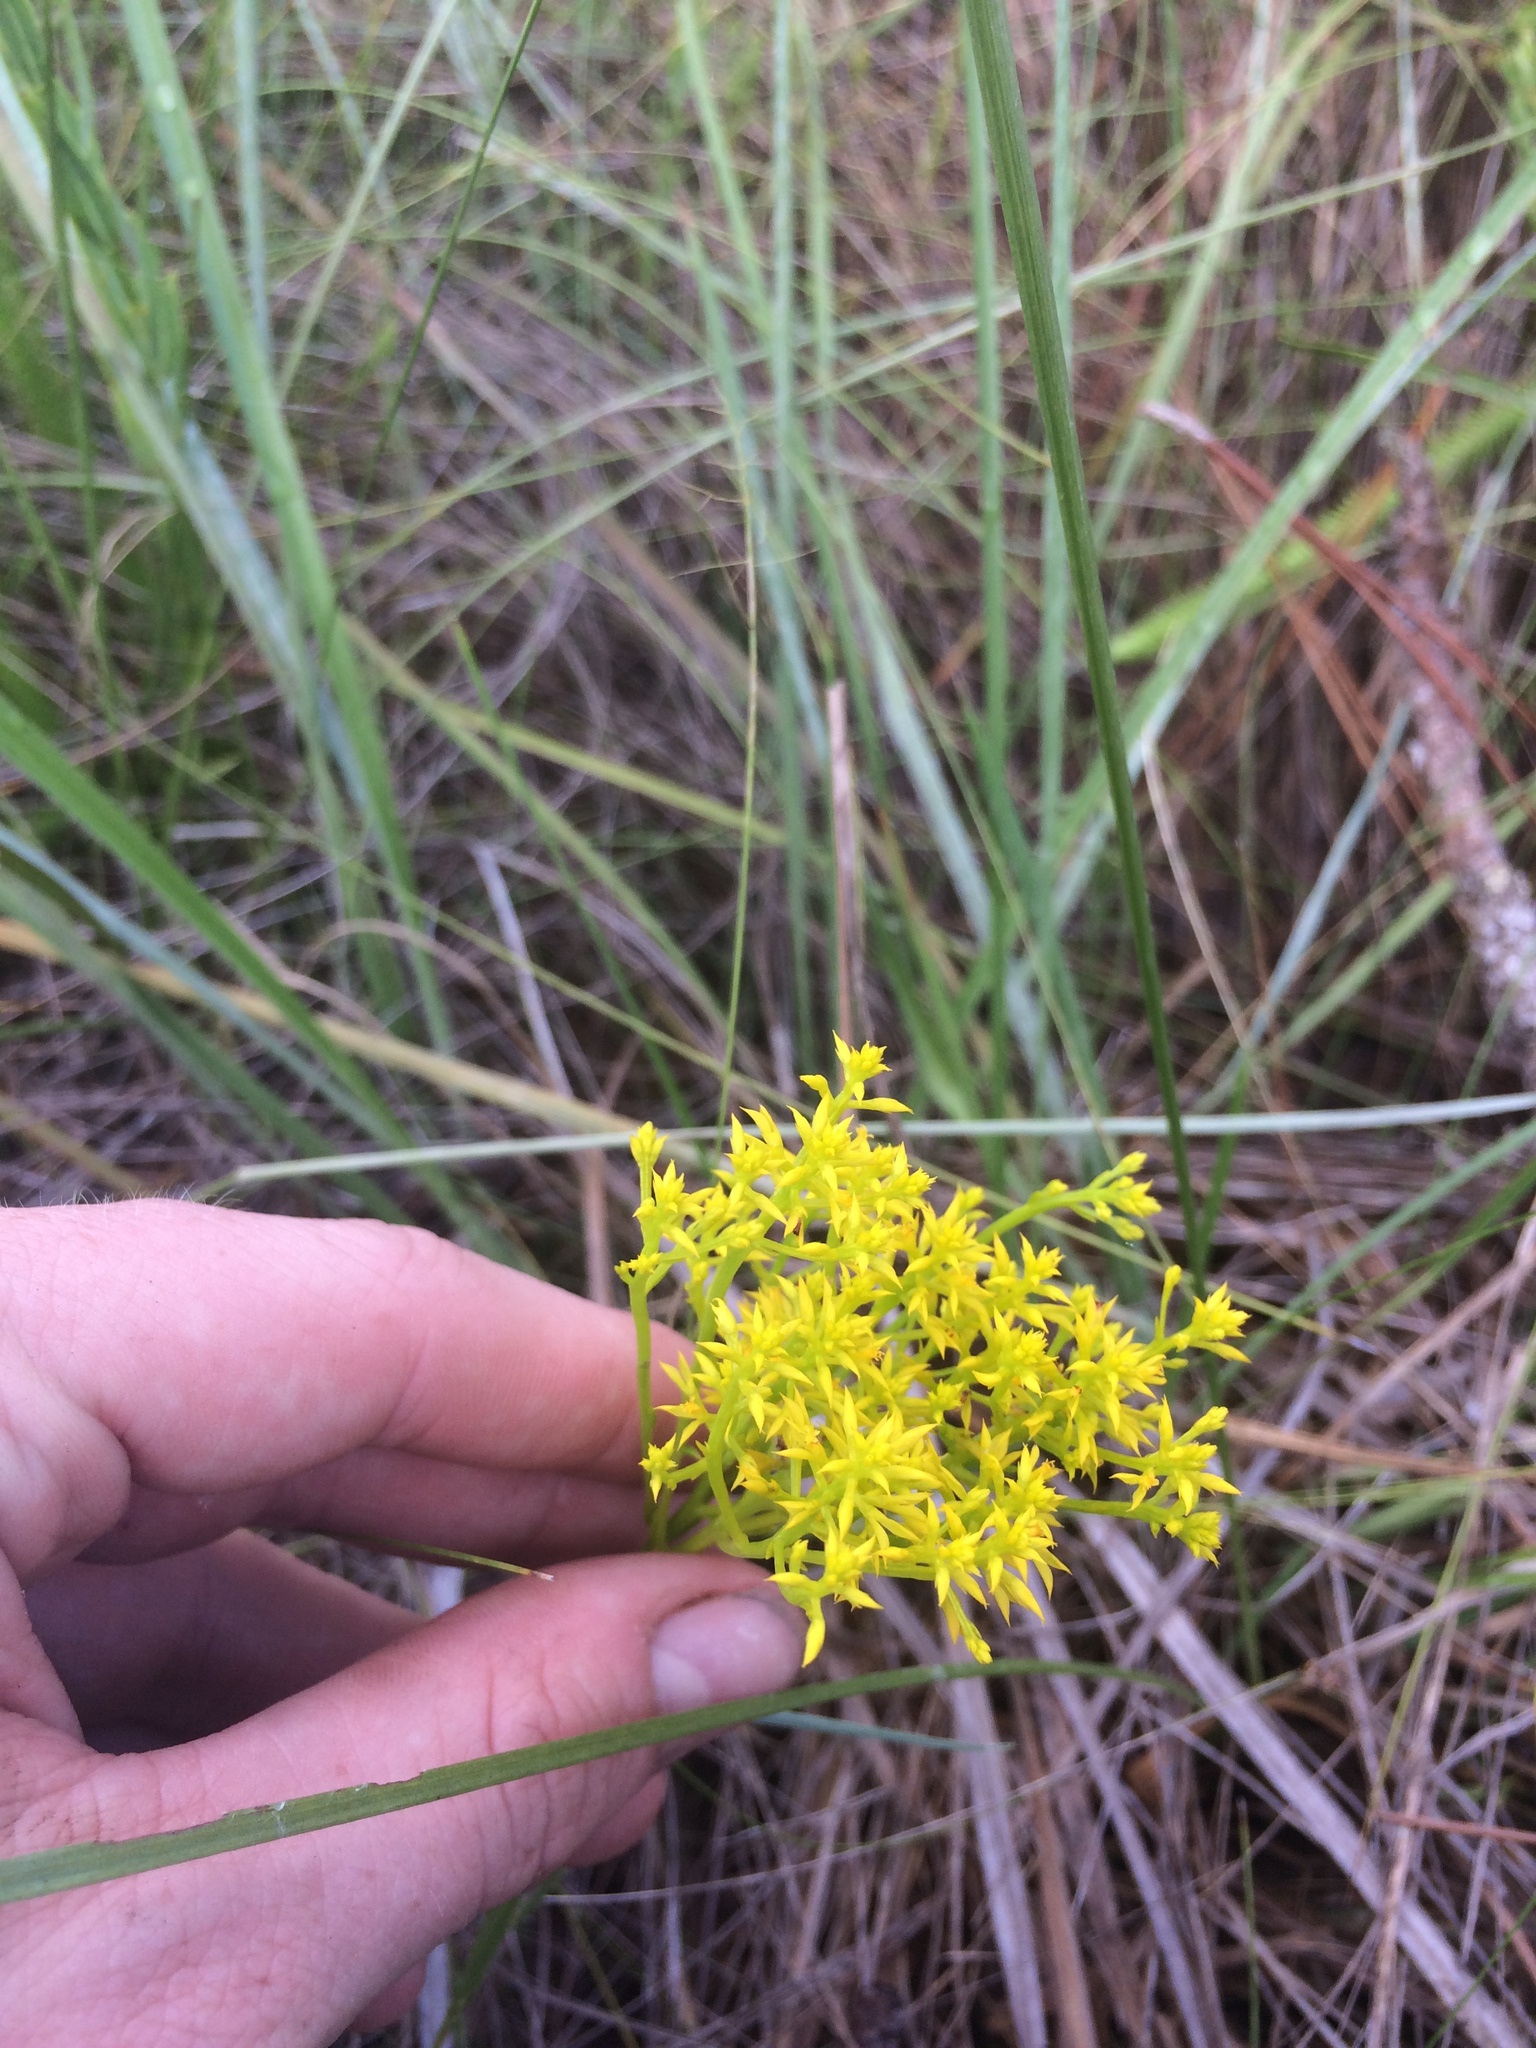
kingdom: Plantae
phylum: Tracheophyta
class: Magnoliopsida
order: Fabales
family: Polygalaceae
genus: Polygala
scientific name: Polygala ramosa
